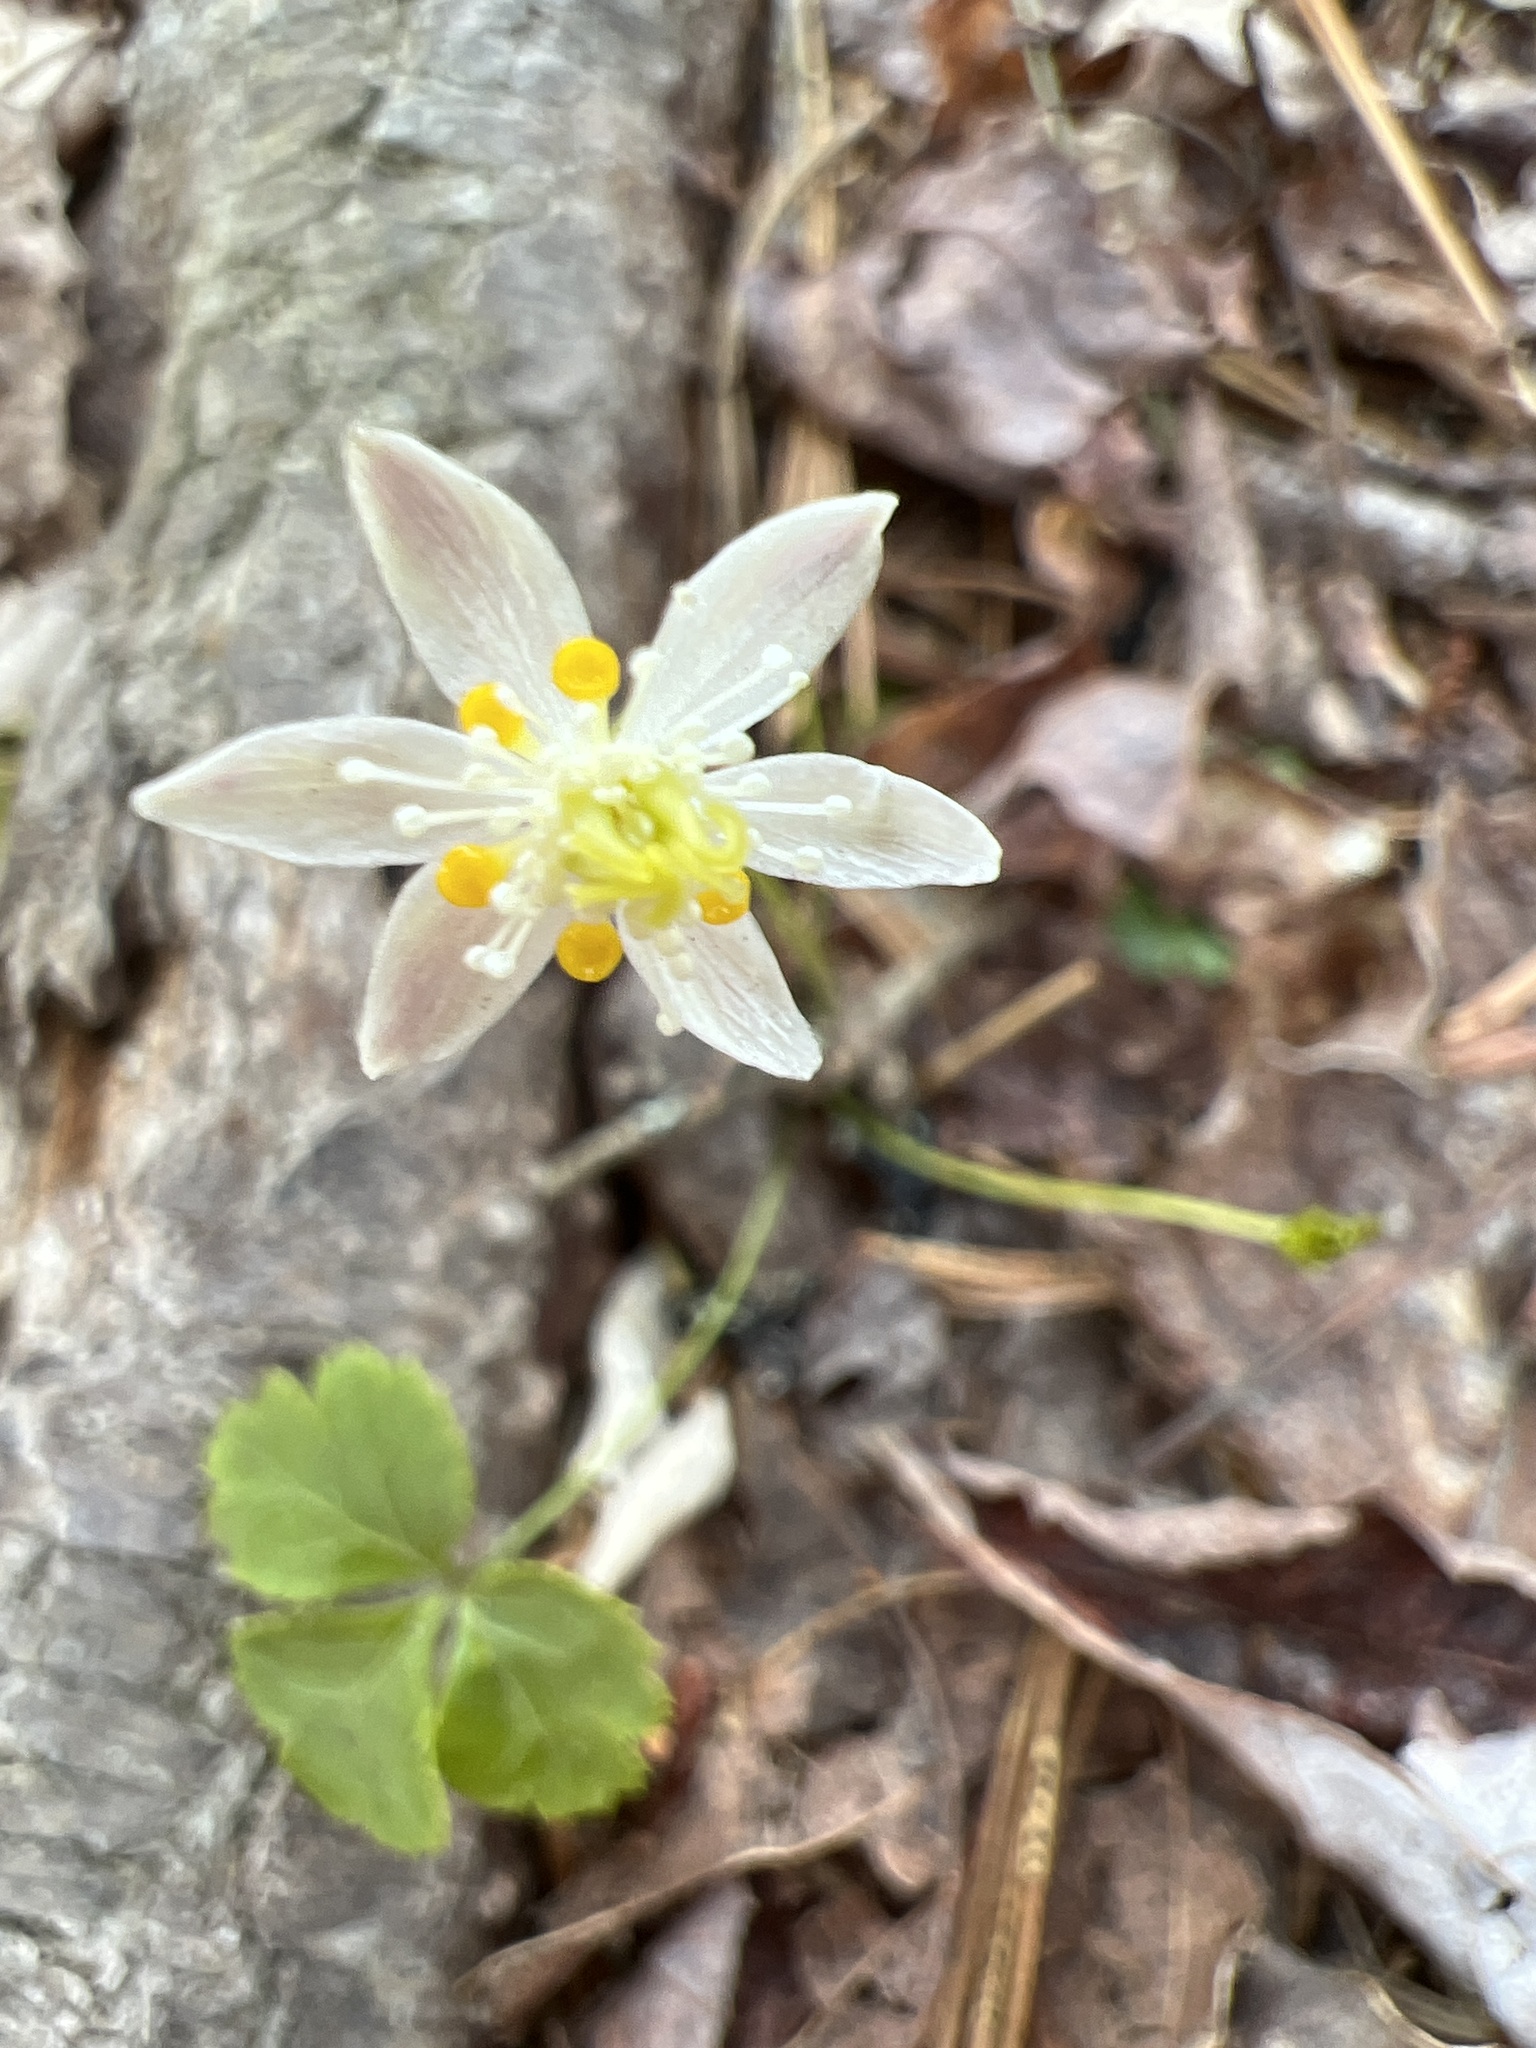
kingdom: Plantae
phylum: Tracheophyta
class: Magnoliopsida
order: Ranunculales
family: Ranunculaceae
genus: Coptis
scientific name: Coptis trifolia
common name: Canker-root
